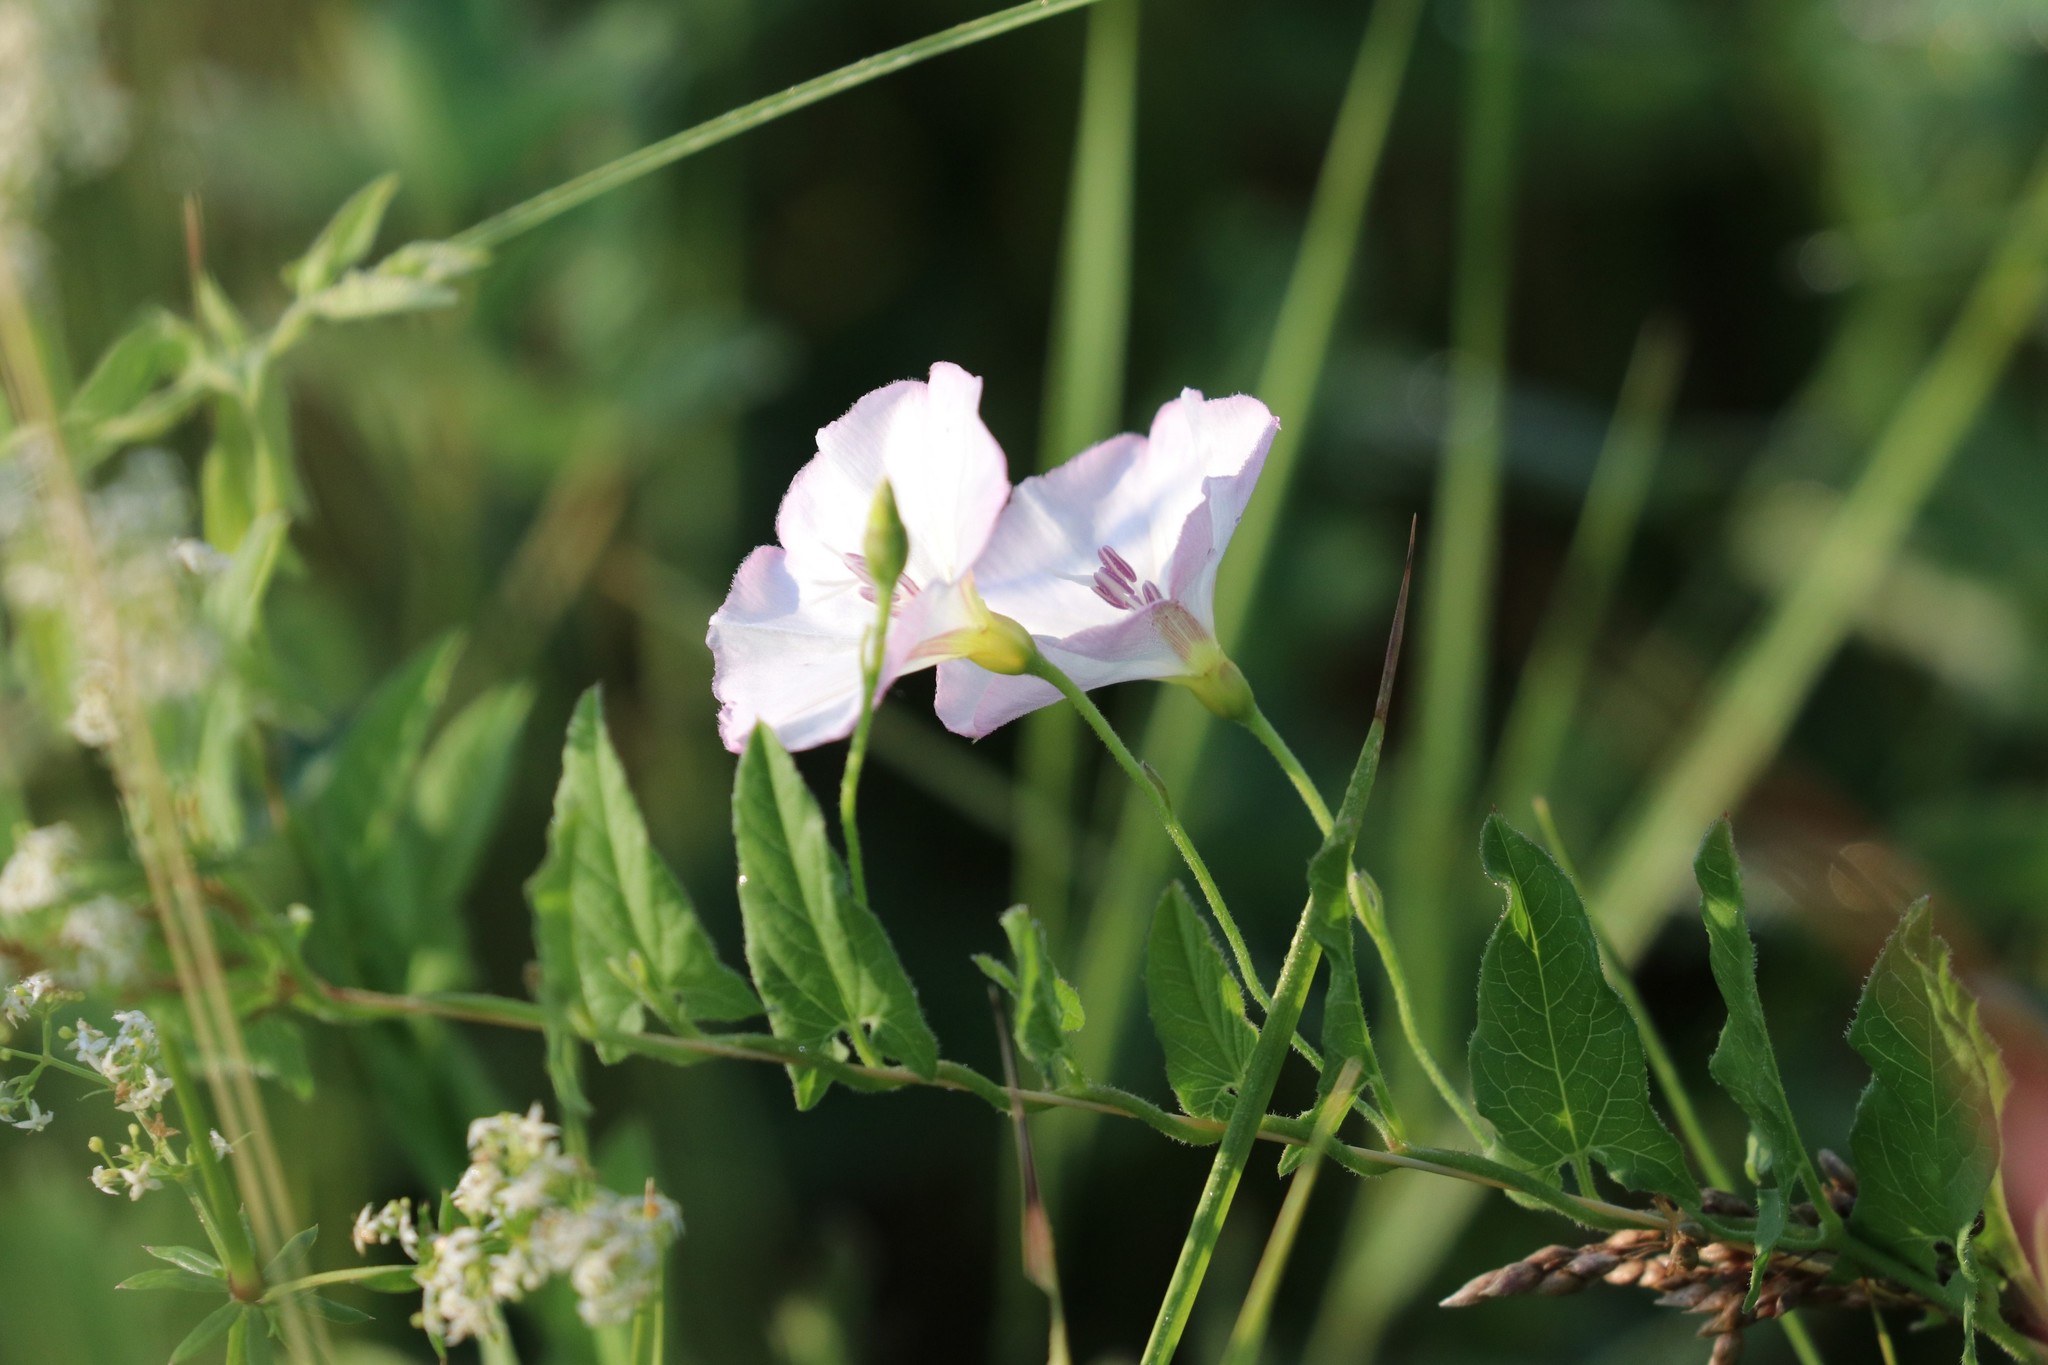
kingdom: Plantae
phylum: Tracheophyta
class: Magnoliopsida
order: Solanales
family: Convolvulaceae
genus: Convolvulus
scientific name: Convolvulus arvensis
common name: Field bindweed
